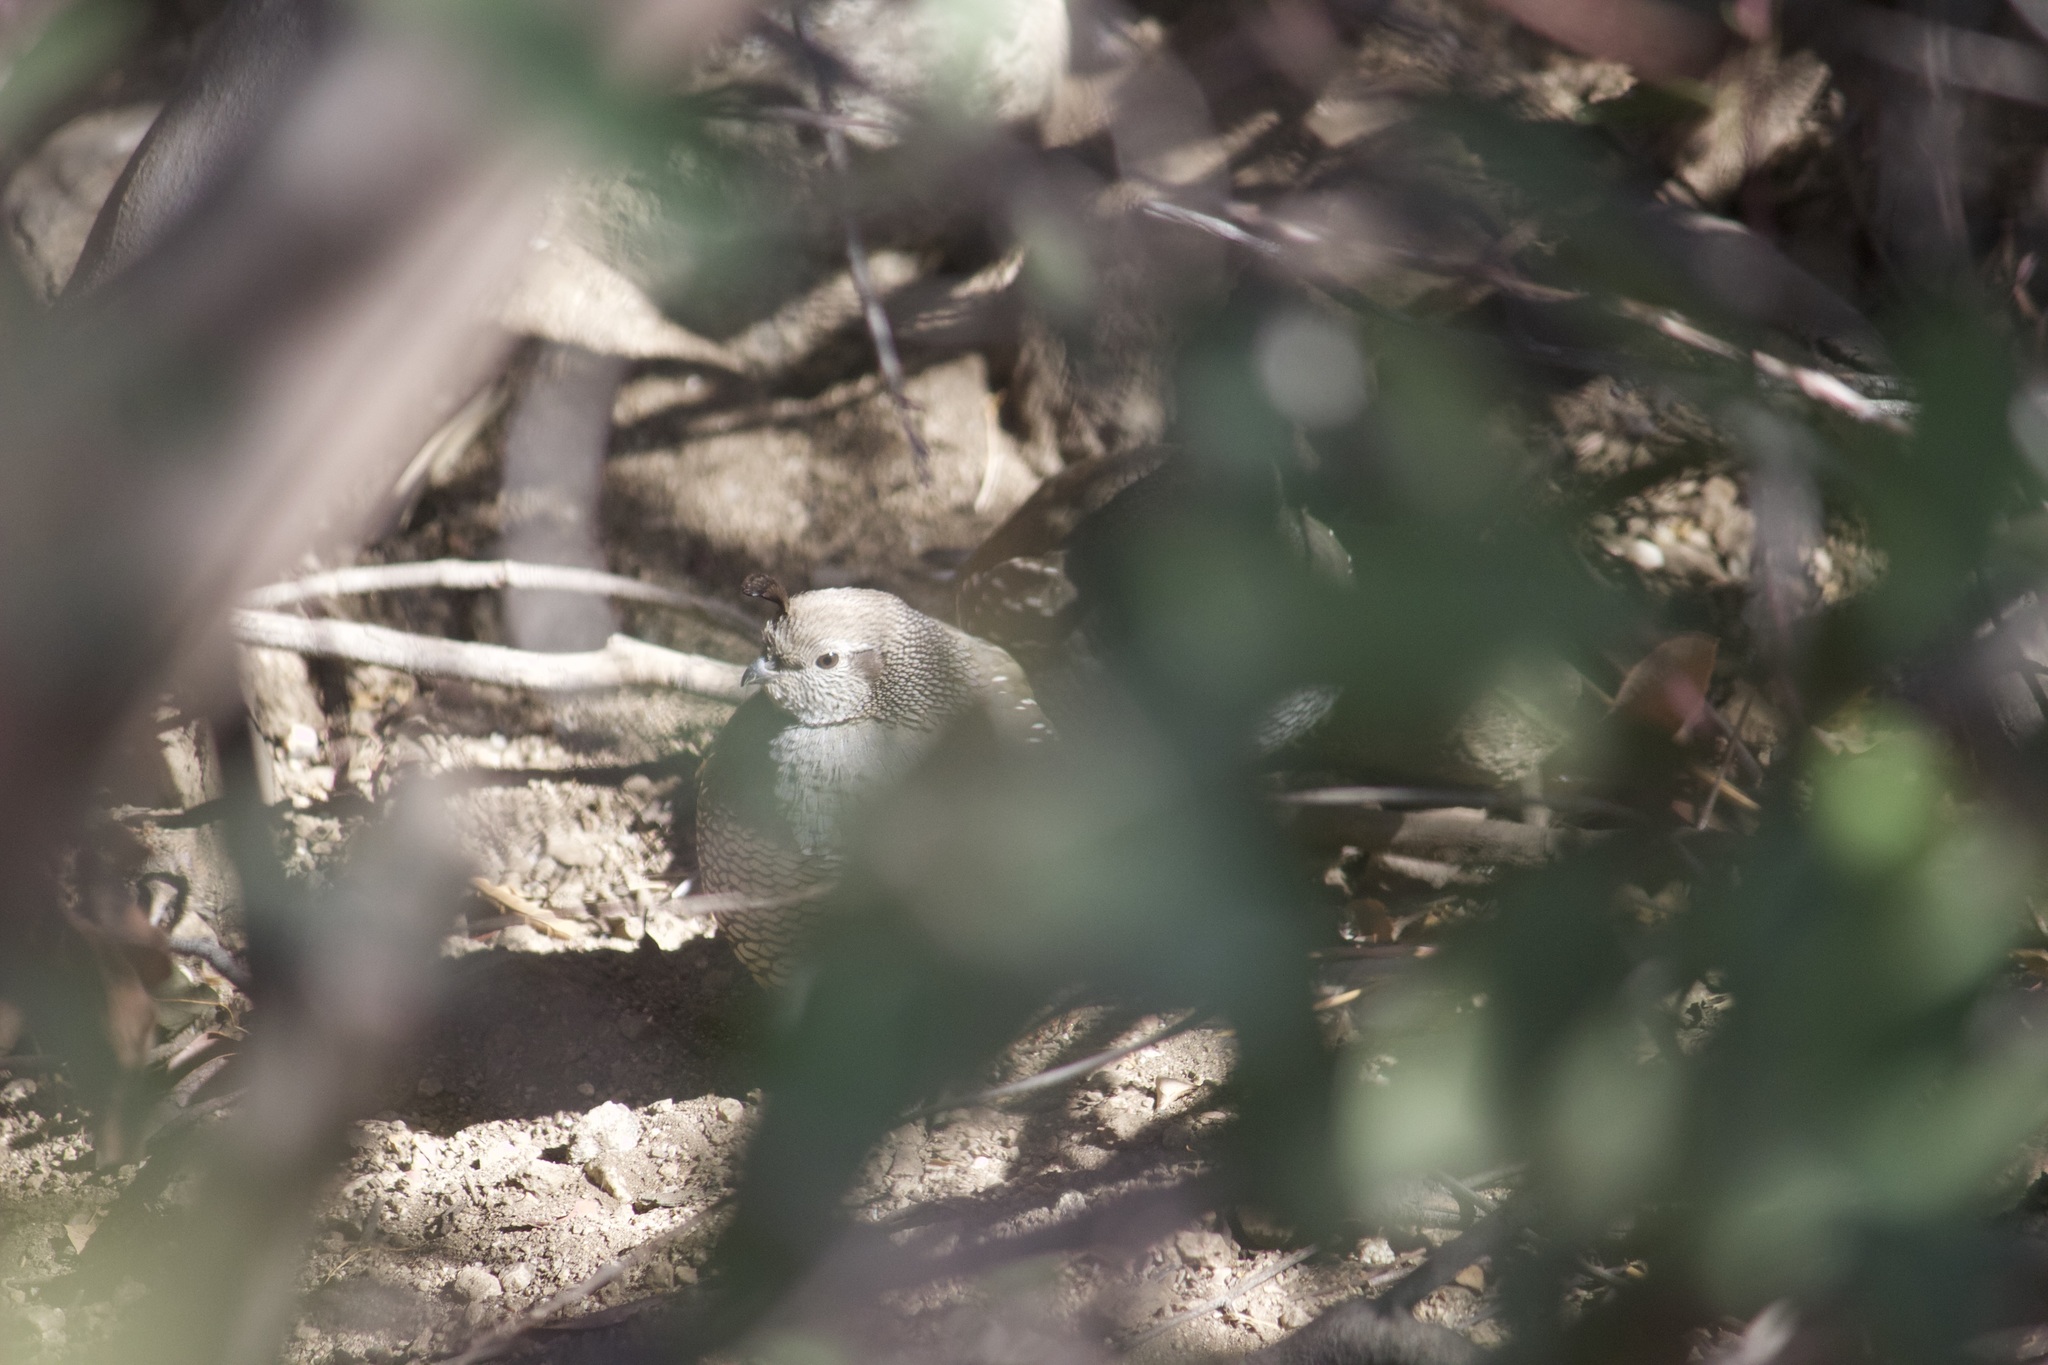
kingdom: Animalia
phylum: Chordata
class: Aves
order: Galliformes
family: Odontophoridae
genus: Callipepla
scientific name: Callipepla californica
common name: California quail
